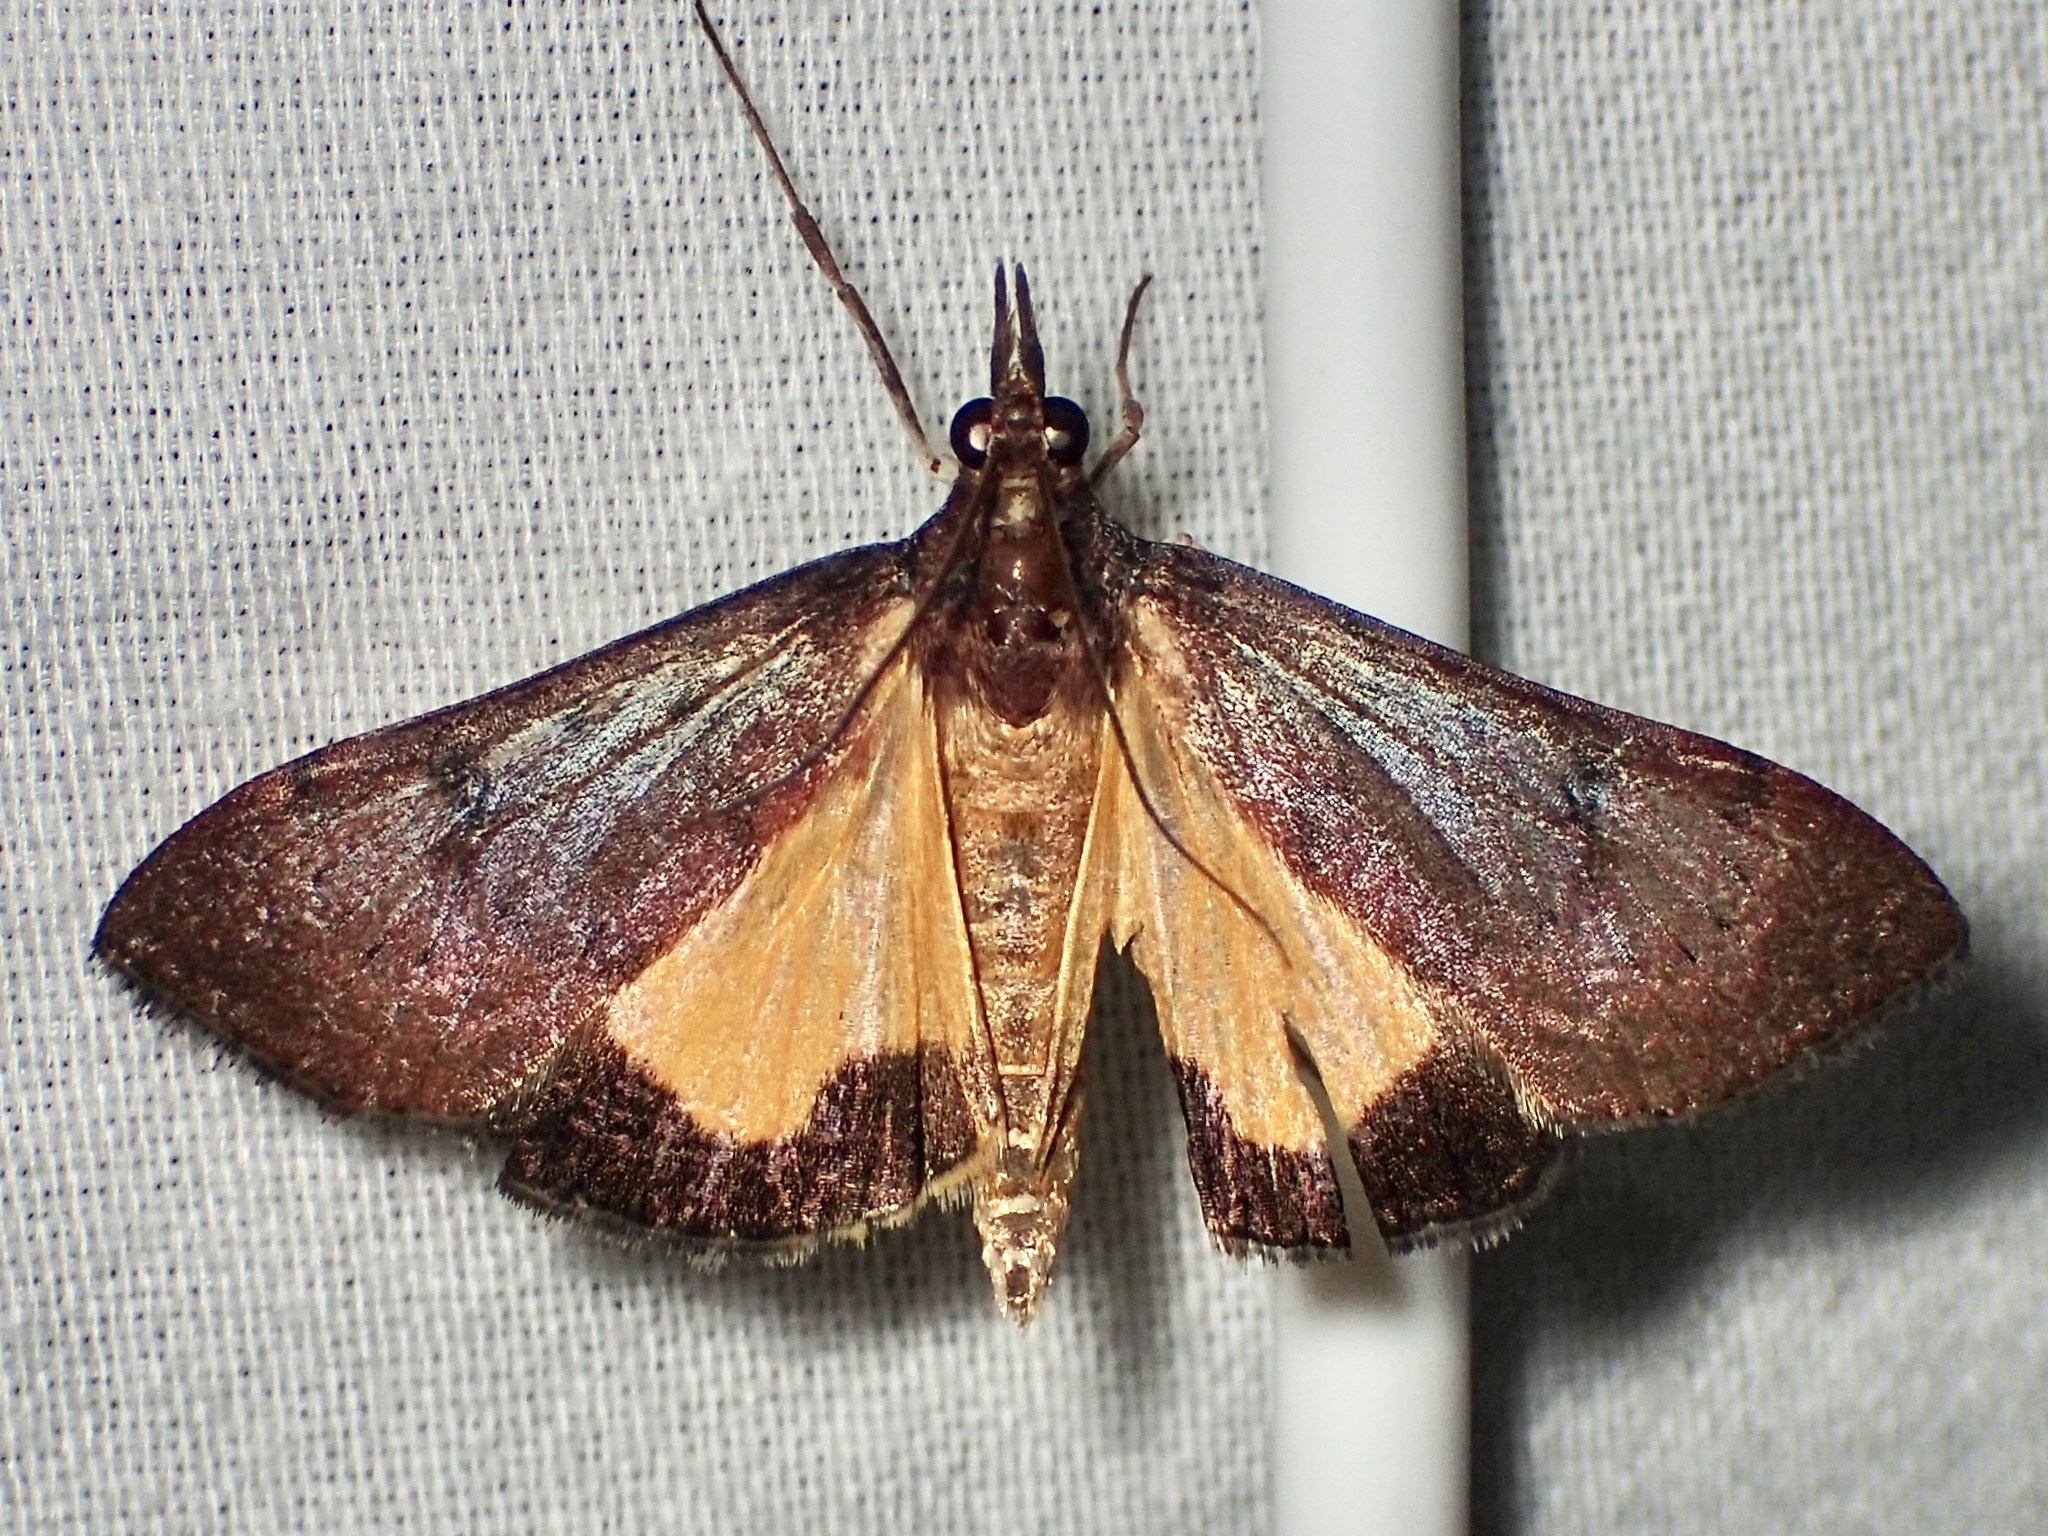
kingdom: Animalia
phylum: Arthropoda
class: Insecta
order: Lepidoptera
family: Crambidae
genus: Uresiphita
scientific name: Uresiphita ornithopteralis
